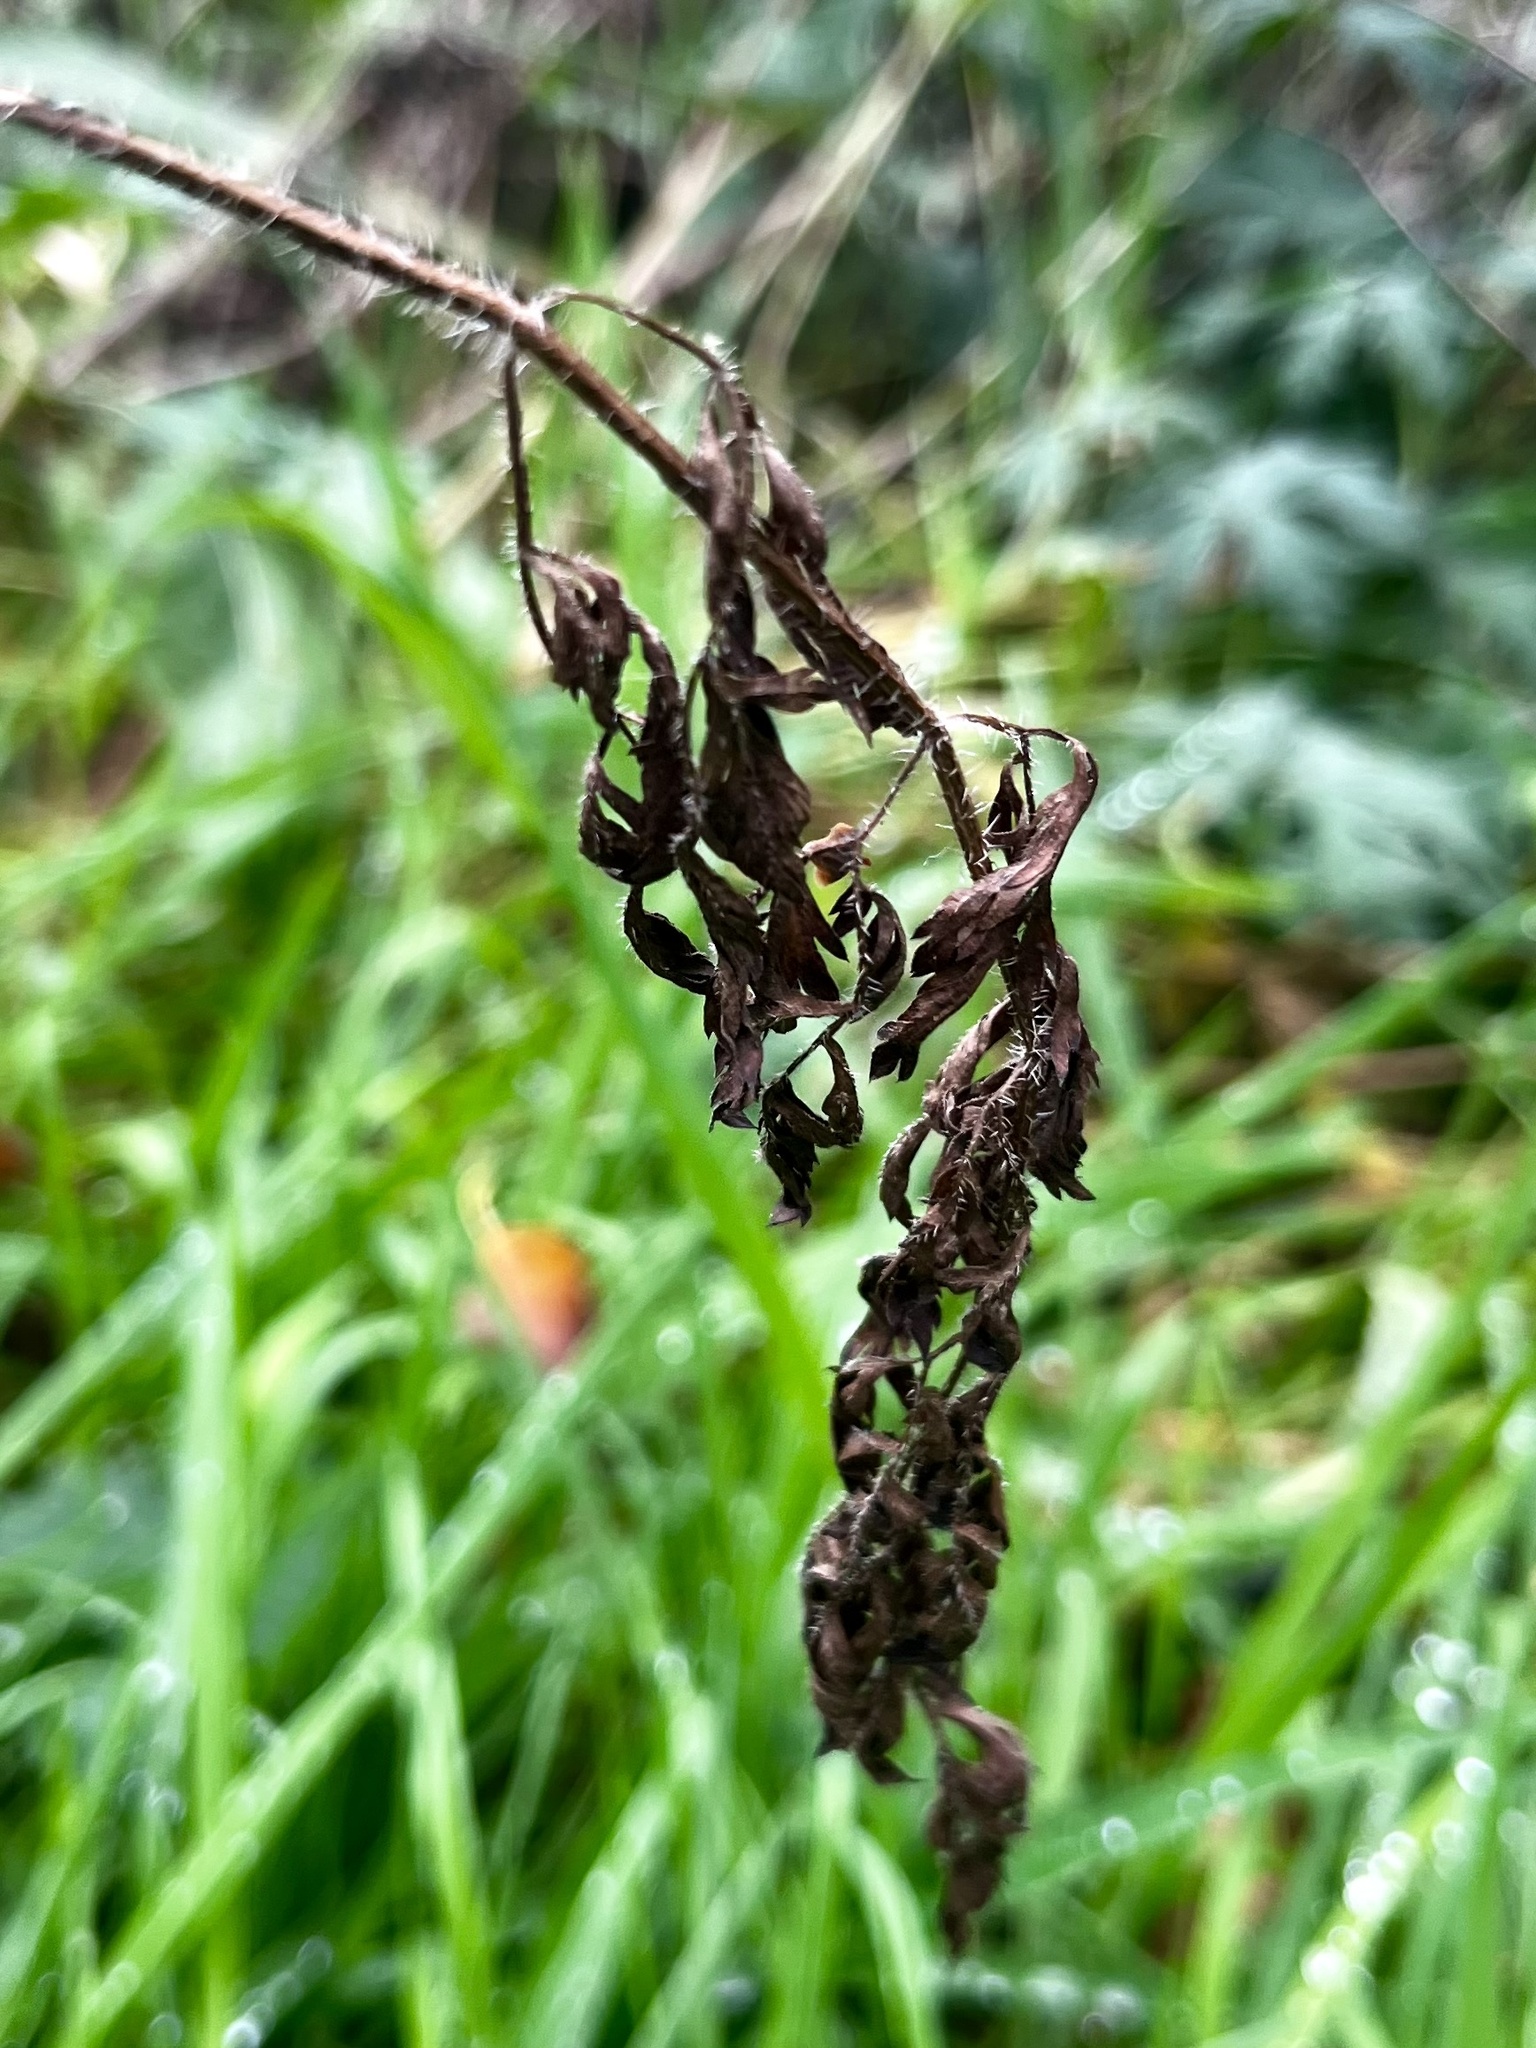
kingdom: Plantae
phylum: Tracheophyta
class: Magnoliopsida
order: Apiales
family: Apiaceae
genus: Daucus
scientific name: Daucus carota
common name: Wild carrot
